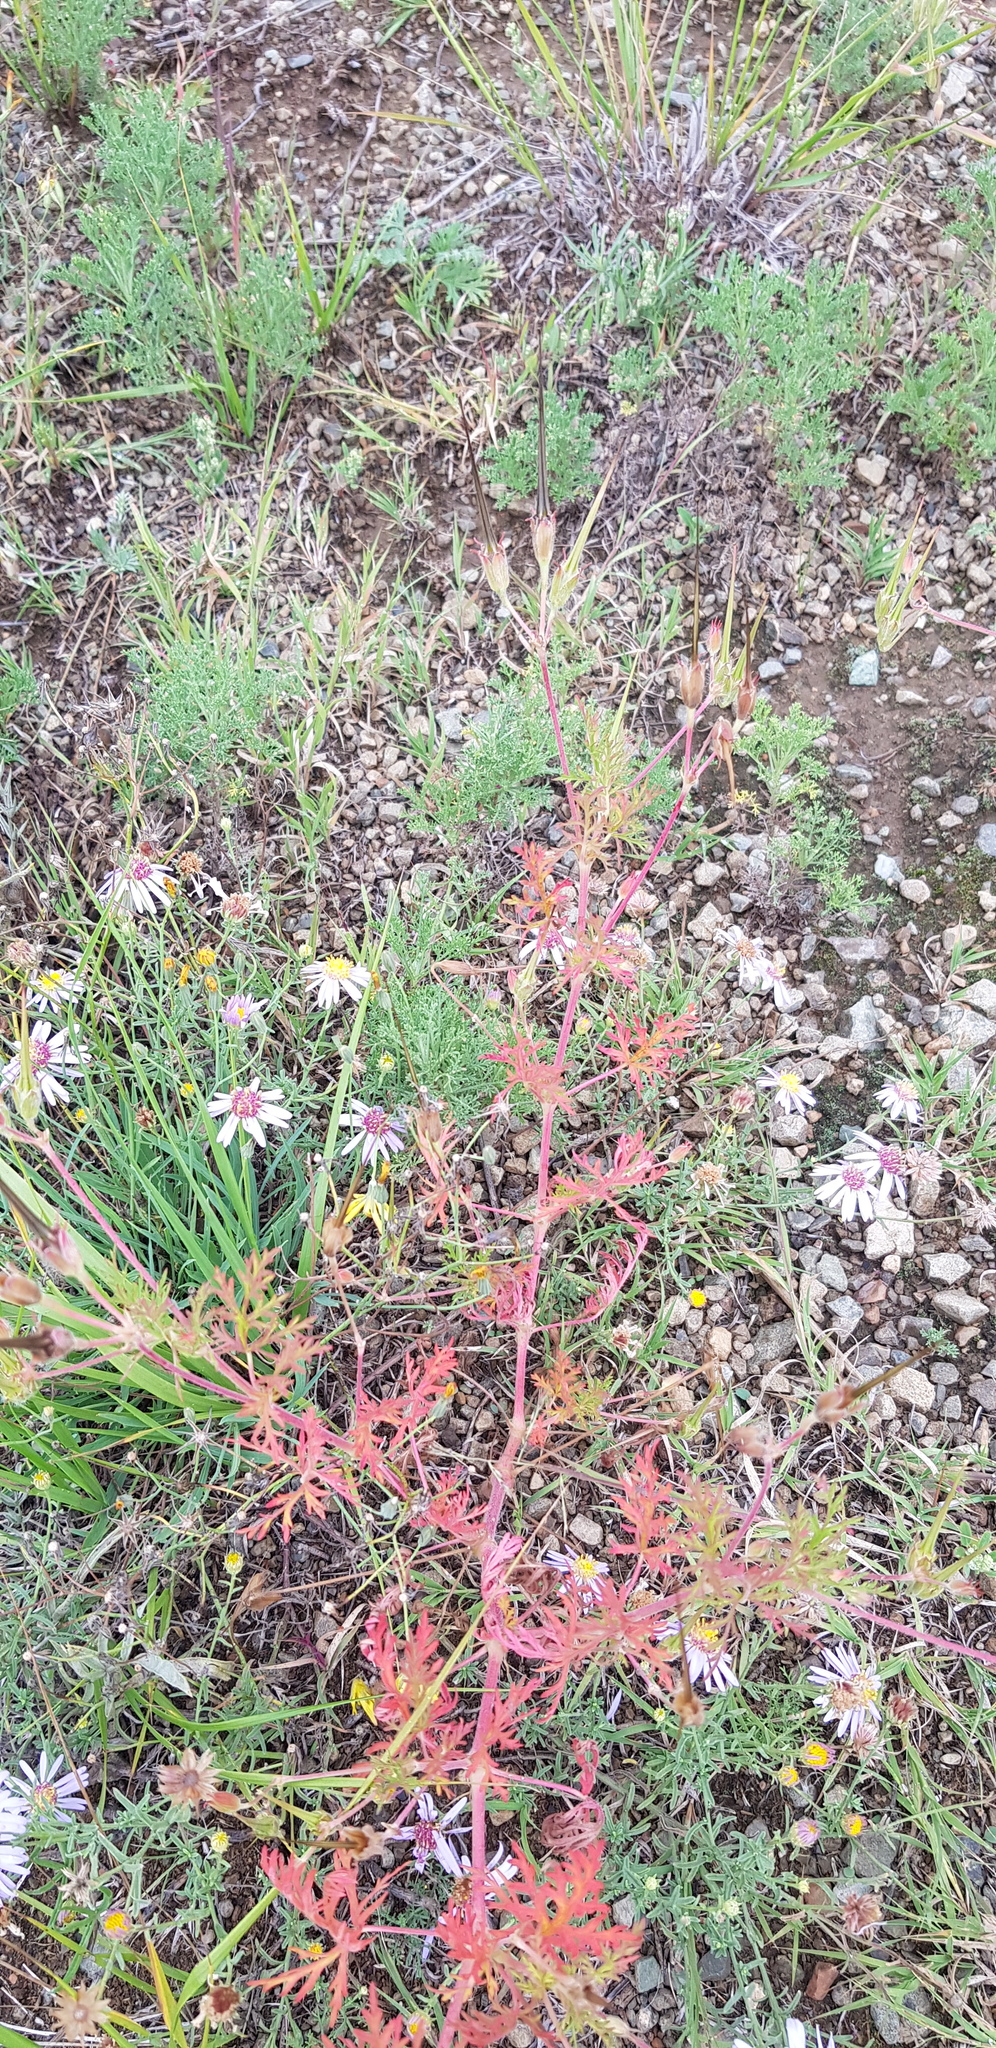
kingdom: Plantae
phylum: Tracheophyta
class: Magnoliopsida
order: Geraniales
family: Geraniaceae
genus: Geranium
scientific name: Geranium pseudosibiricum
